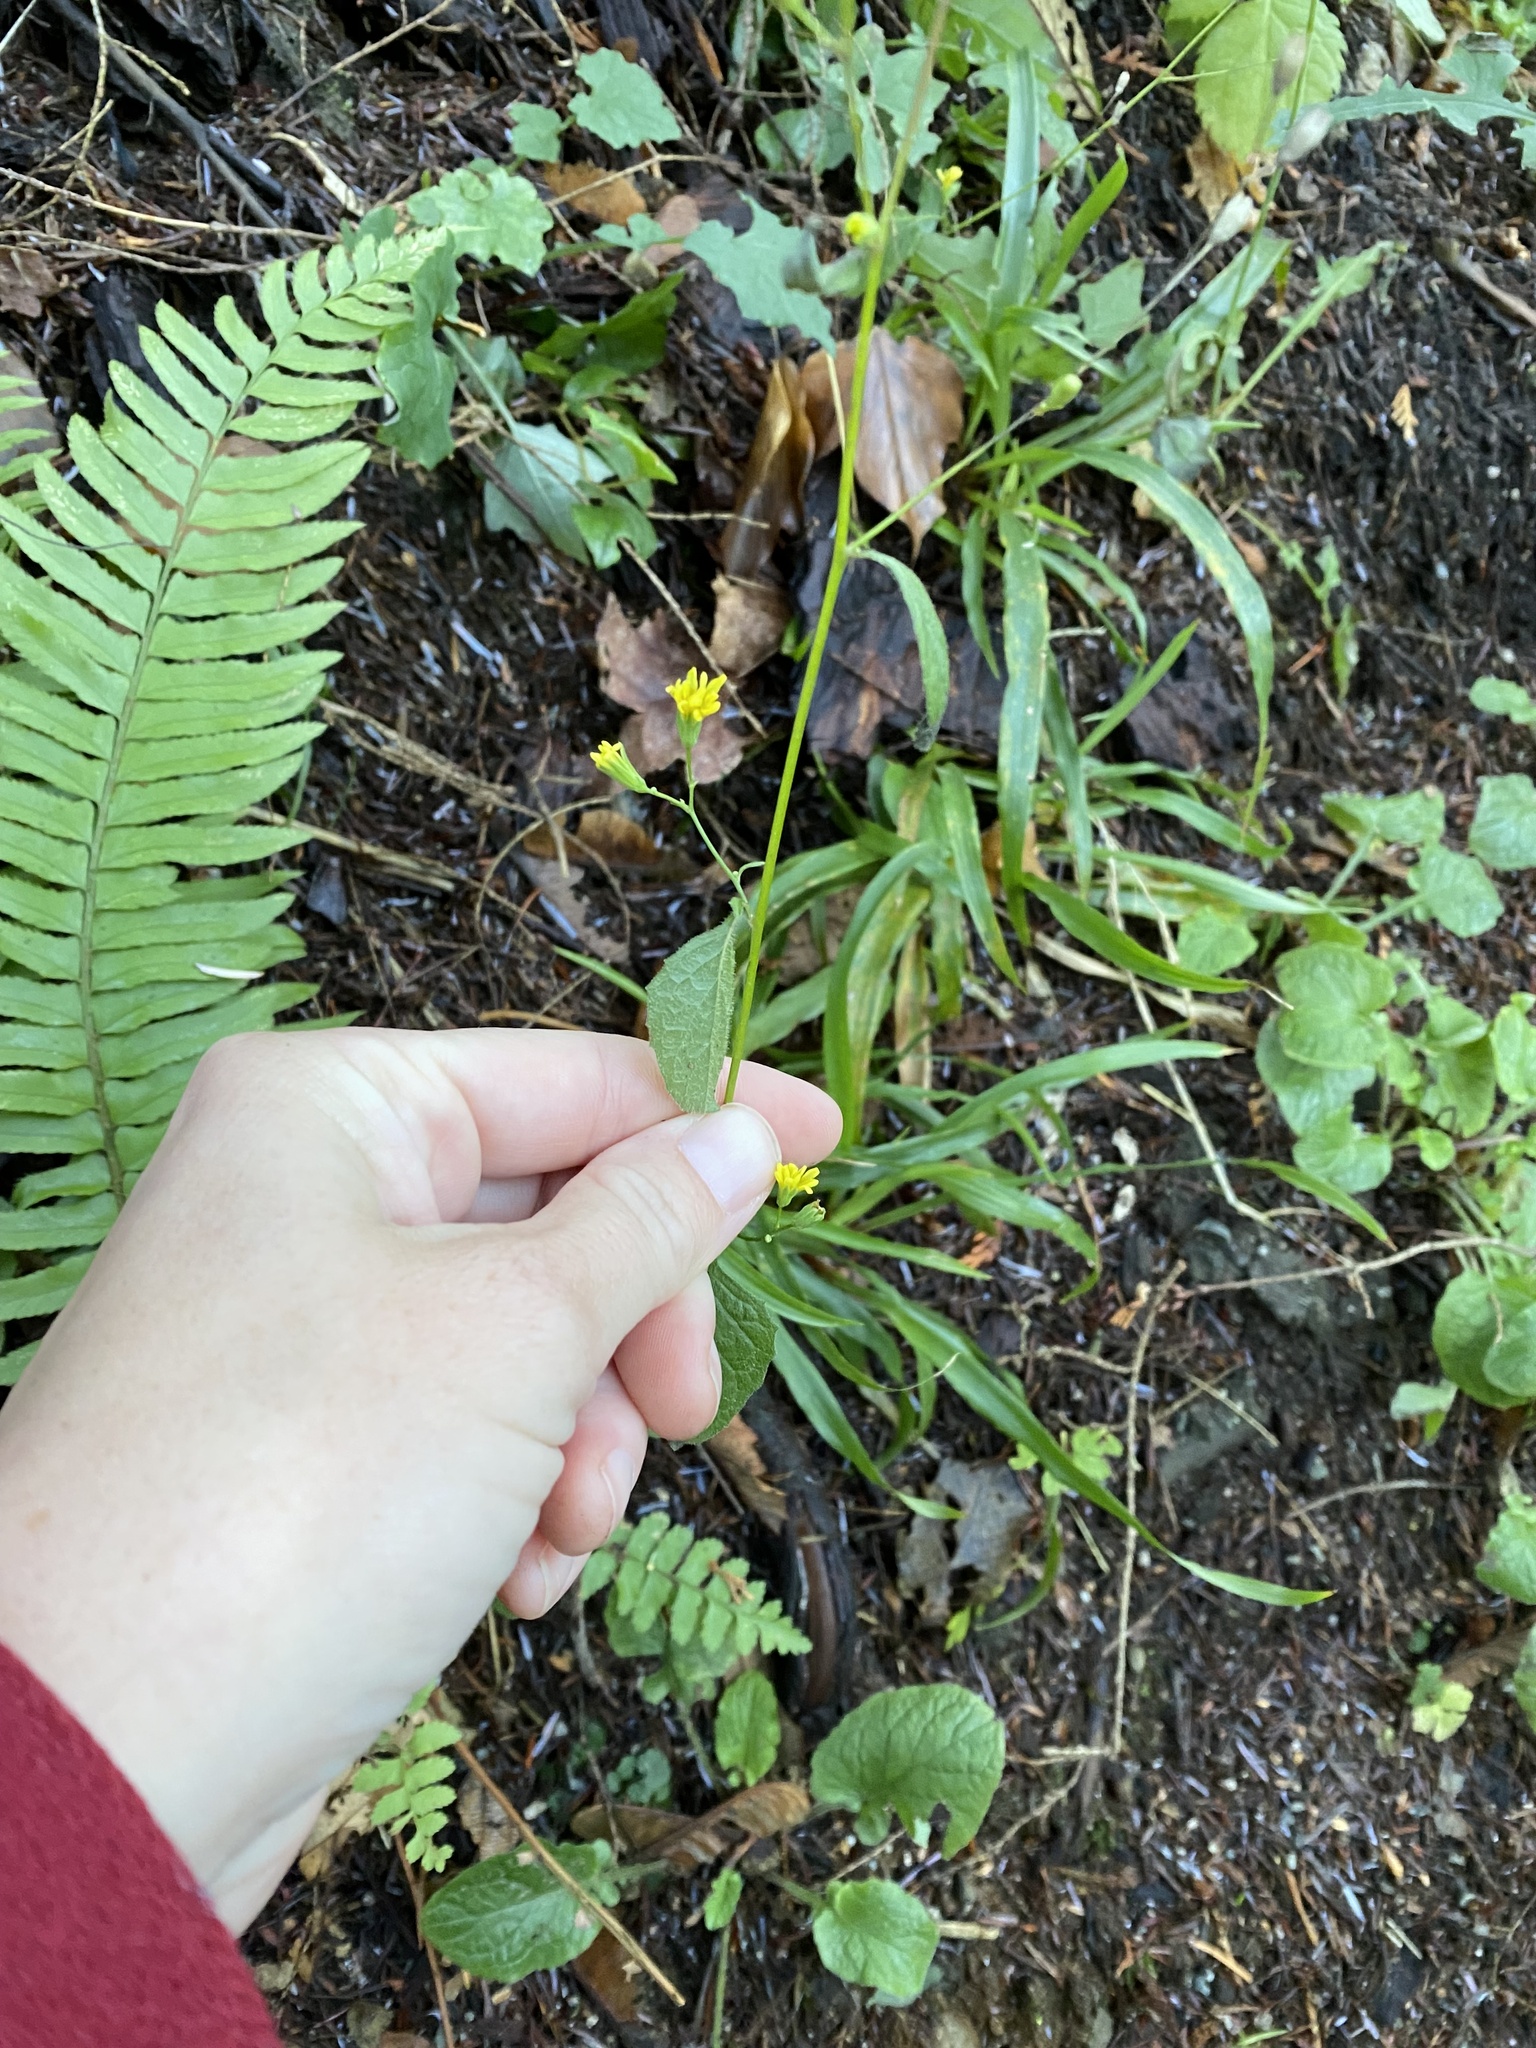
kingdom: Plantae
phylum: Tracheophyta
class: Magnoliopsida
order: Asterales
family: Asteraceae
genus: Lapsana
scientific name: Lapsana communis
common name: Nipplewort
